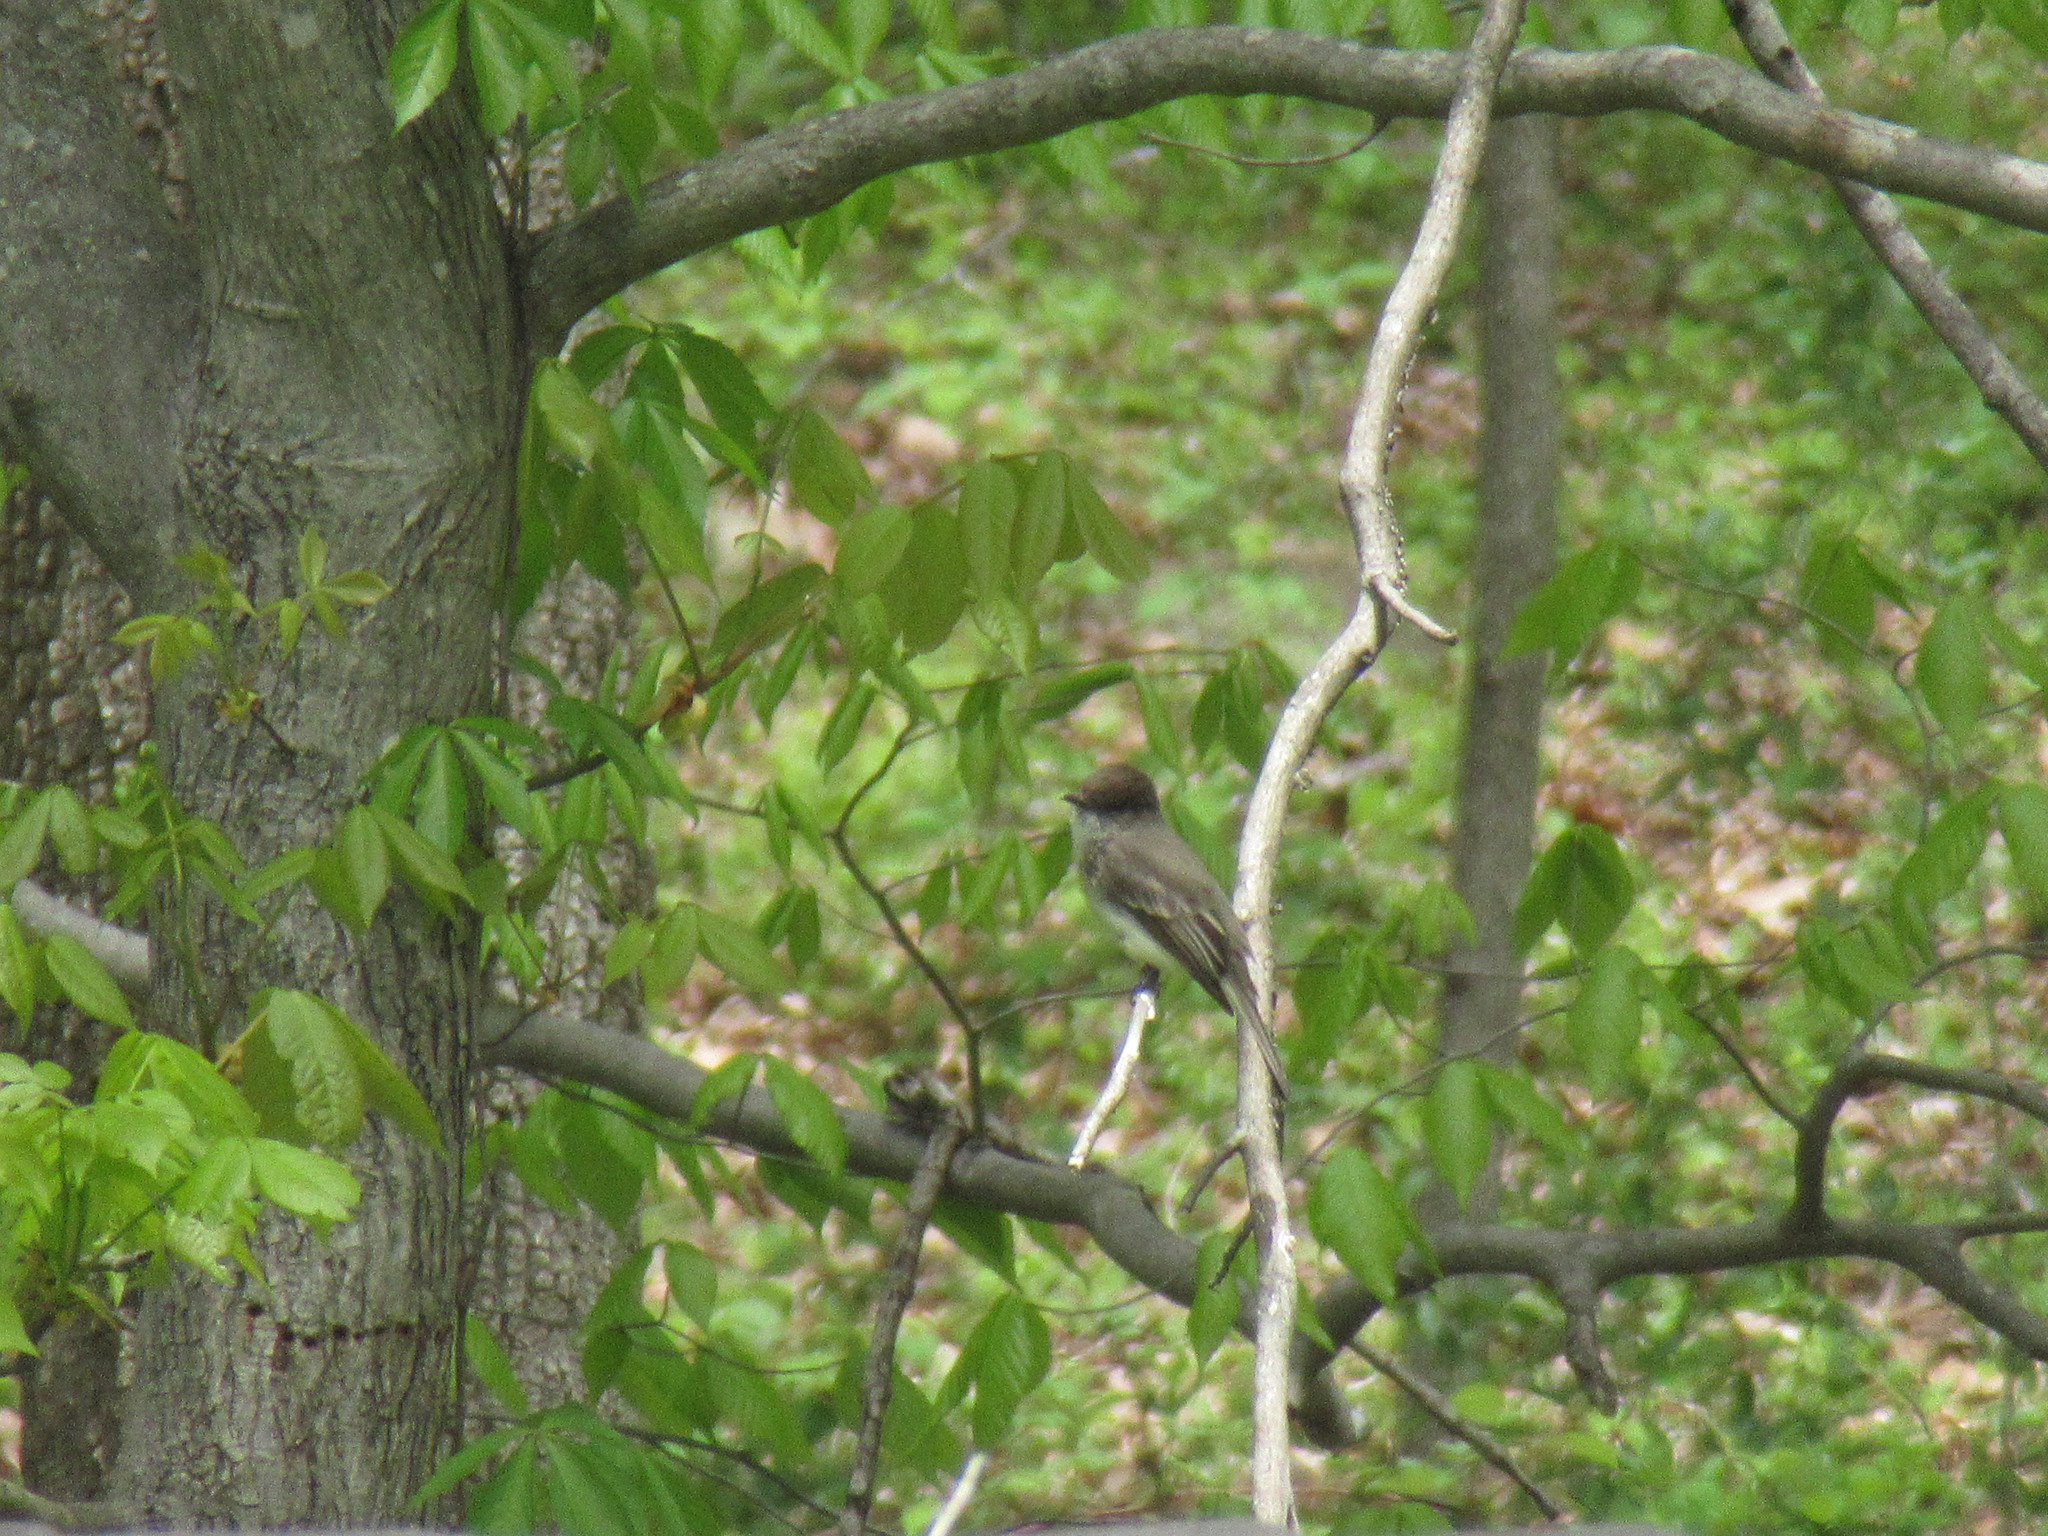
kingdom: Animalia
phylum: Chordata
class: Aves
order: Passeriformes
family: Tyrannidae
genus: Sayornis
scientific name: Sayornis phoebe
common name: Eastern phoebe
